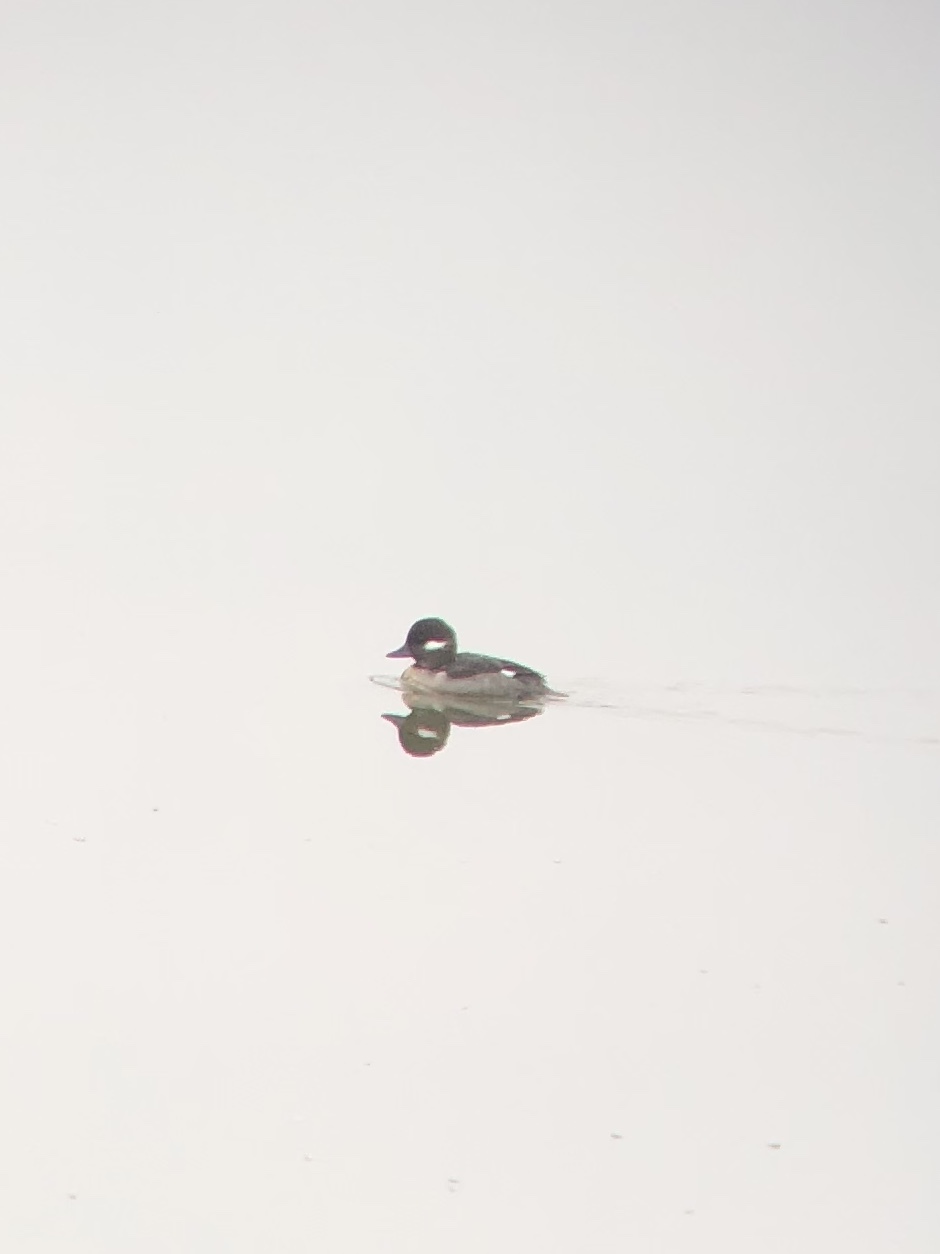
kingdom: Animalia
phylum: Chordata
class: Aves
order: Anseriformes
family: Anatidae
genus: Bucephala
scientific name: Bucephala albeola
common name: Bufflehead
